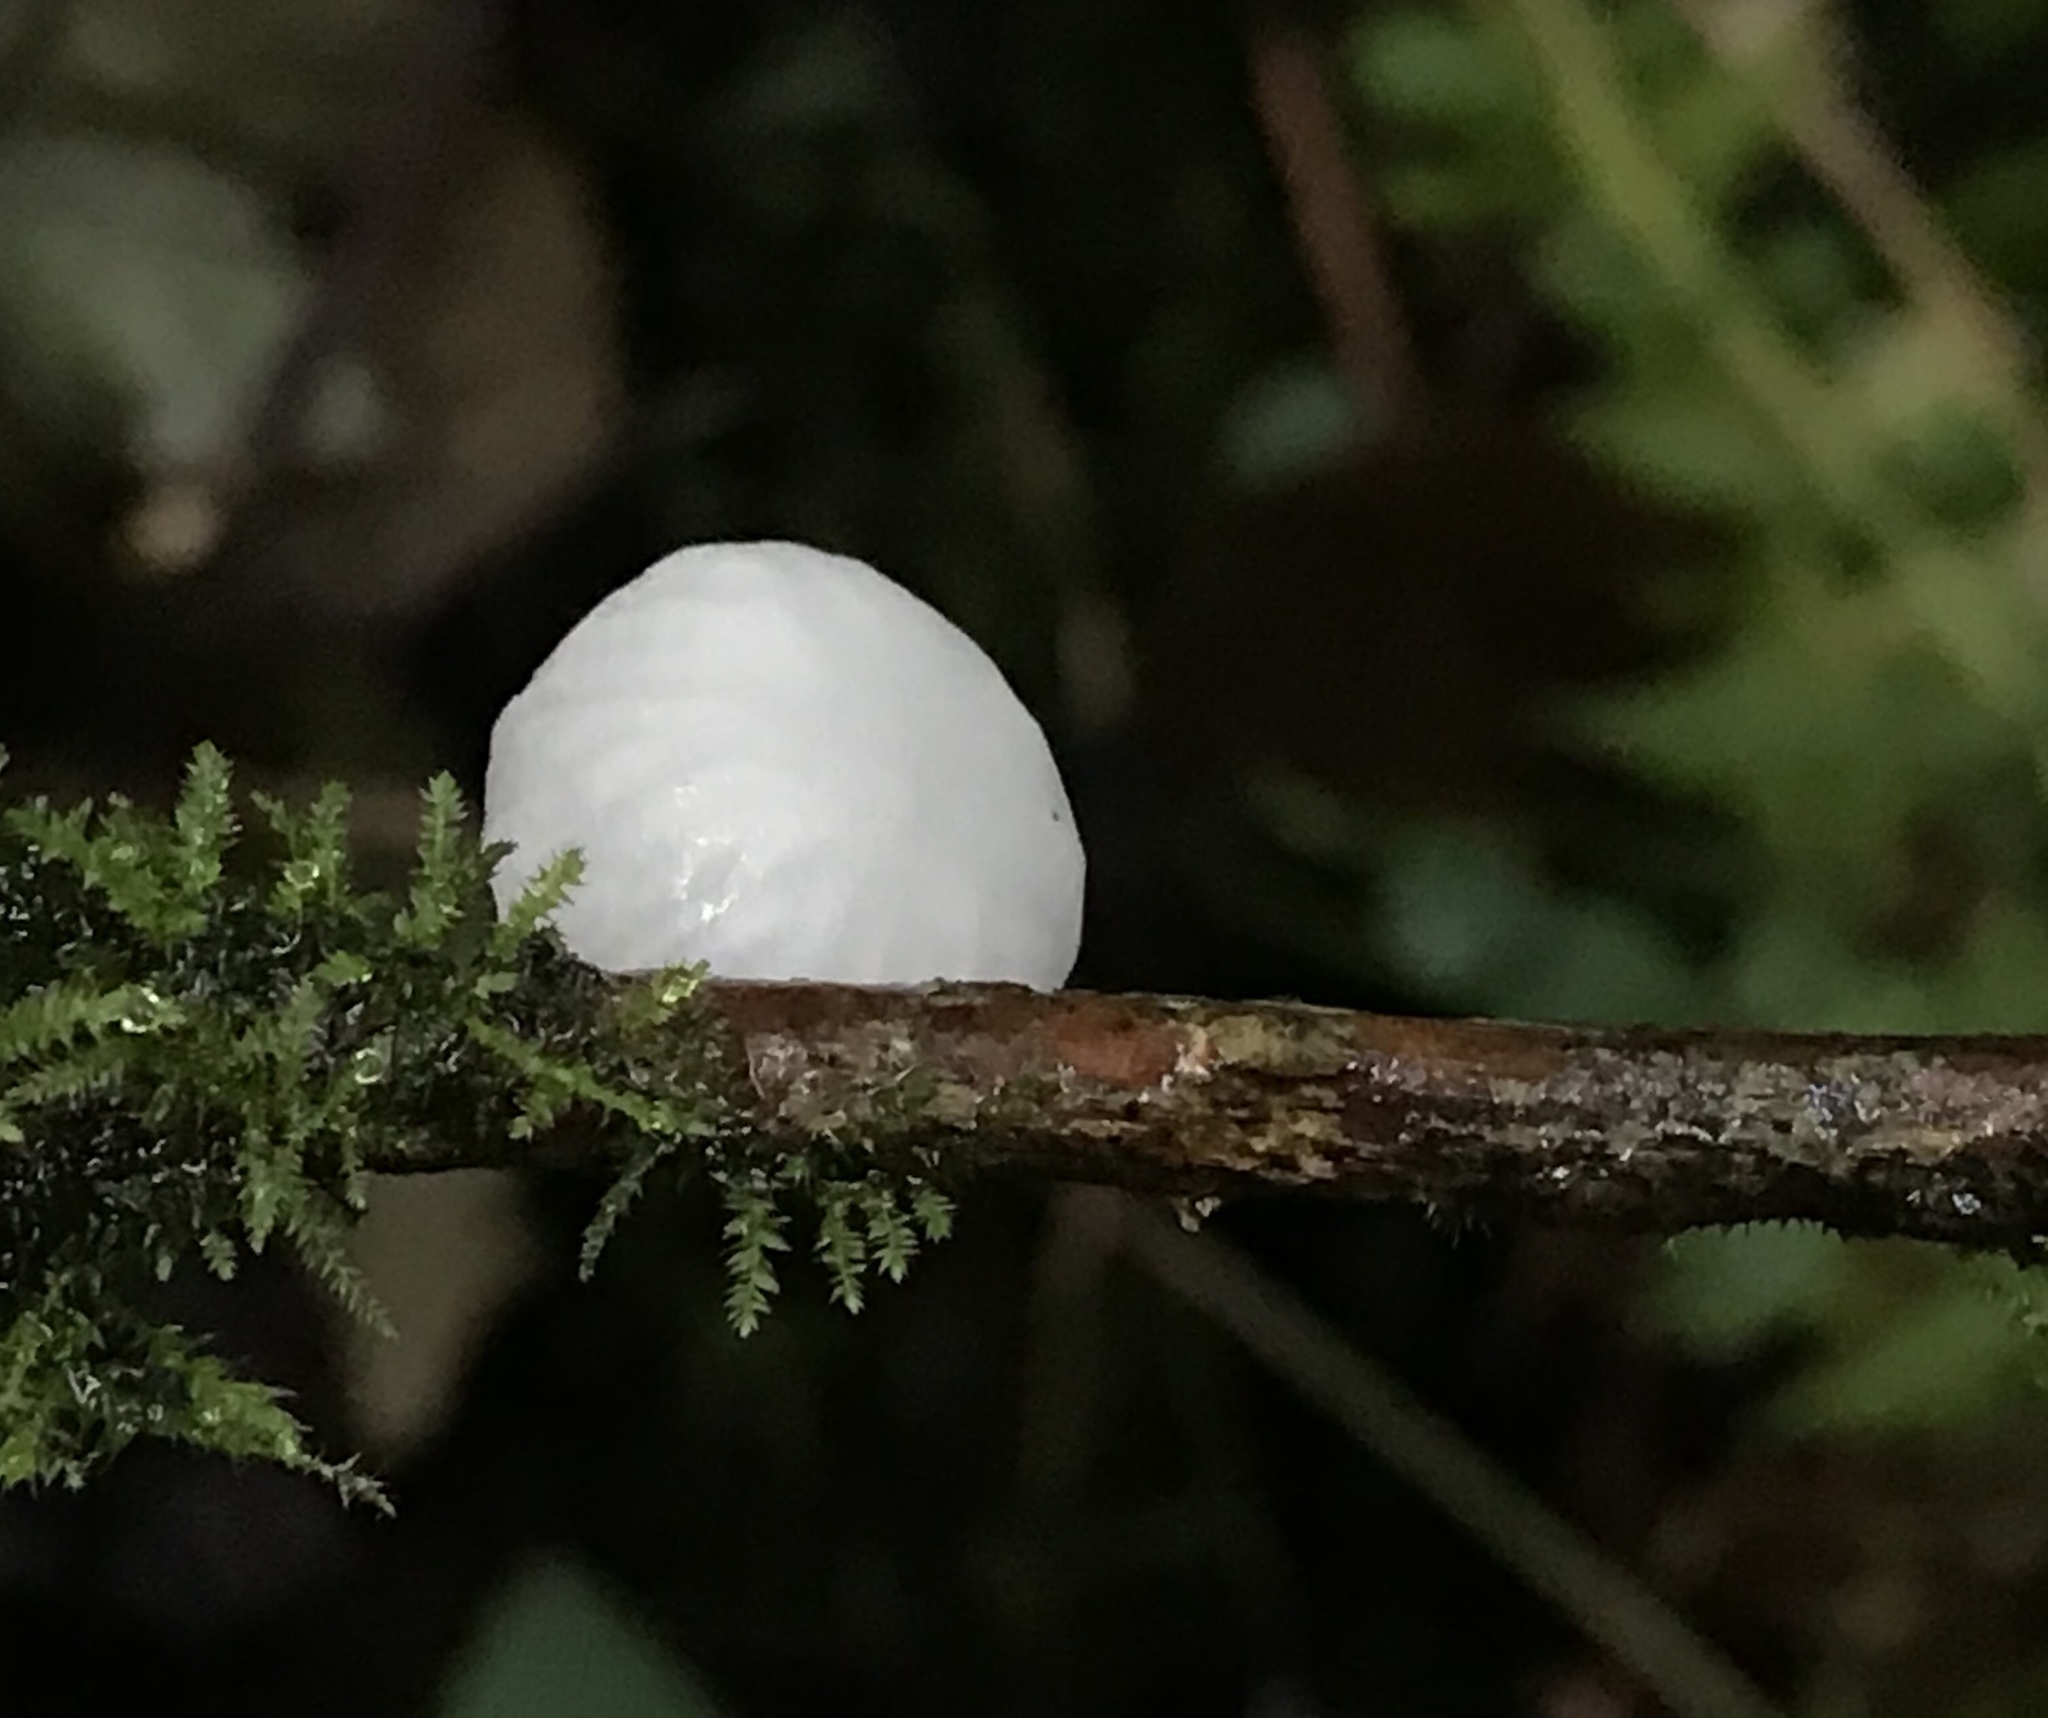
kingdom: Fungi
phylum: Basidiomycota
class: Agaricomycetes
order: Agaricales
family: Omphalotaceae
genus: Marasmiellus
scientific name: Marasmiellus candidus
